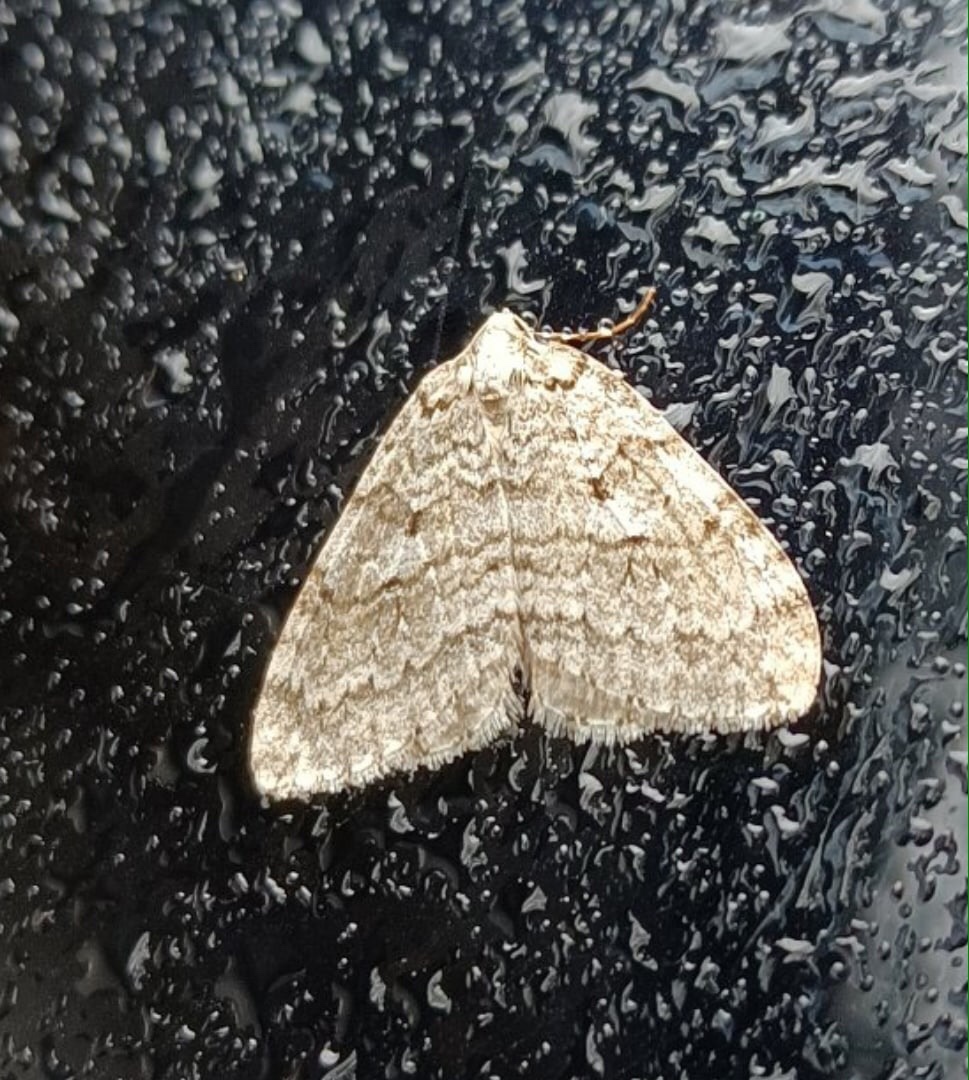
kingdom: Animalia
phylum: Arthropoda
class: Insecta
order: Lepidoptera
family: Geometridae
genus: Epirrita
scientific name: Epirrita autumnata
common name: Autumnal moth
